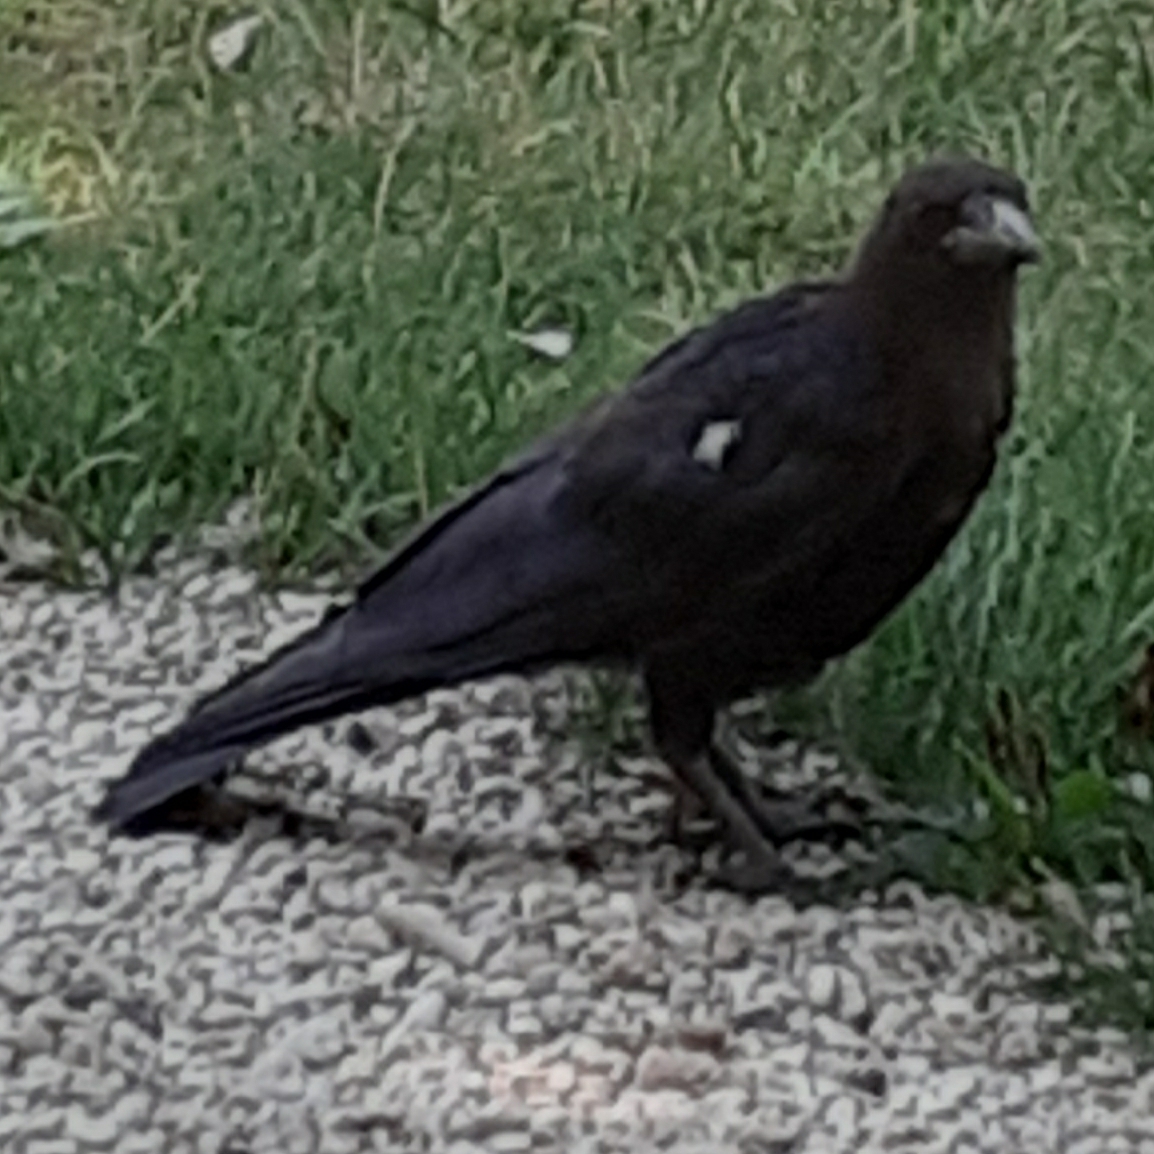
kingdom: Animalia
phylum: Chordata
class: Aves
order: Passeriformes
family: Corvidae
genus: Corvus
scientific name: Corvus corone
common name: Carrion crow
